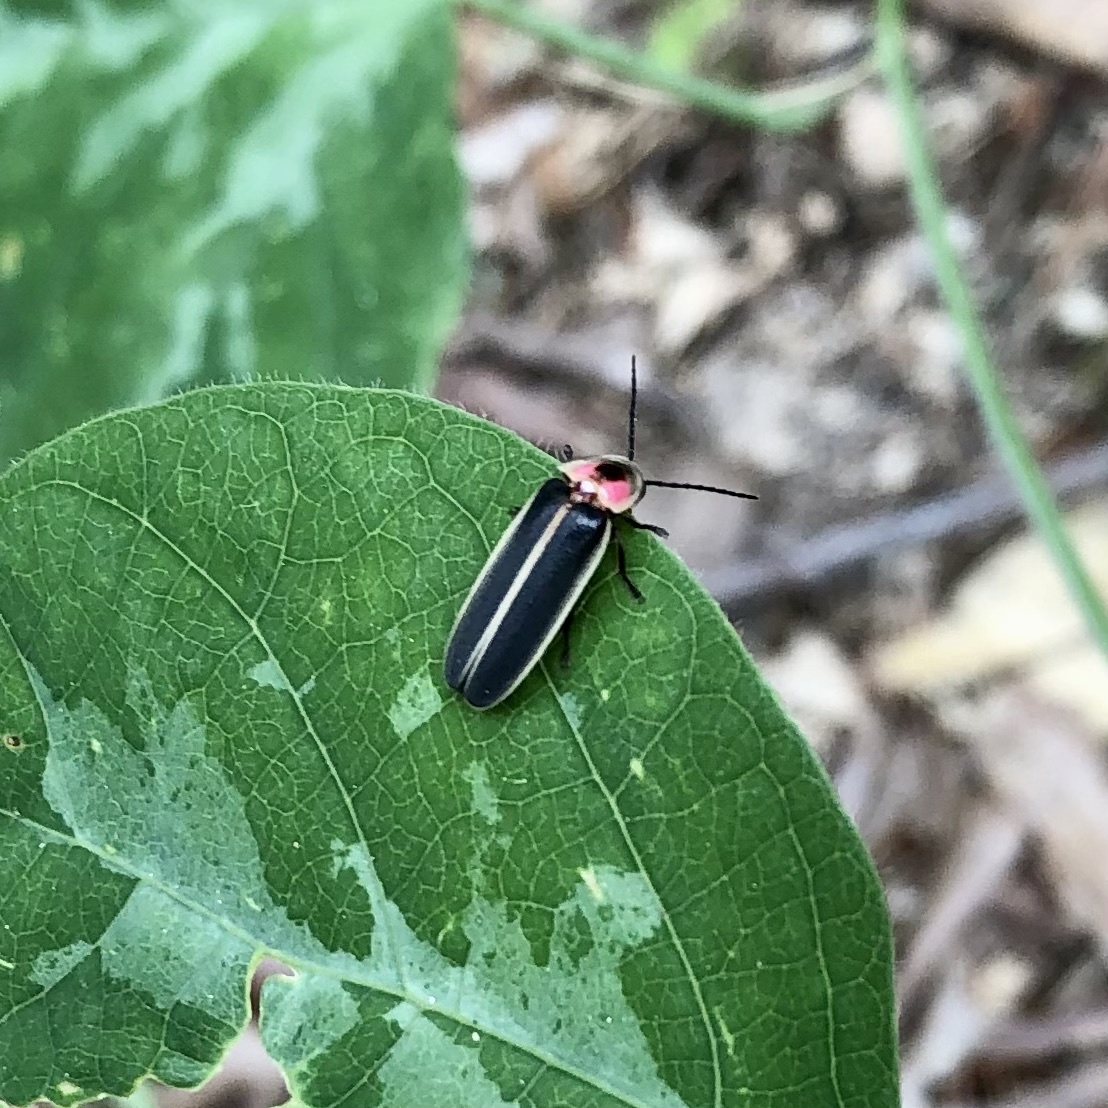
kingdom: Animalia
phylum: Arthropoda
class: Insecta
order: Coleoptera
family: Lampyridae
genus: Photinus
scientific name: Photinus pyralis
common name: Big dipper firefly
